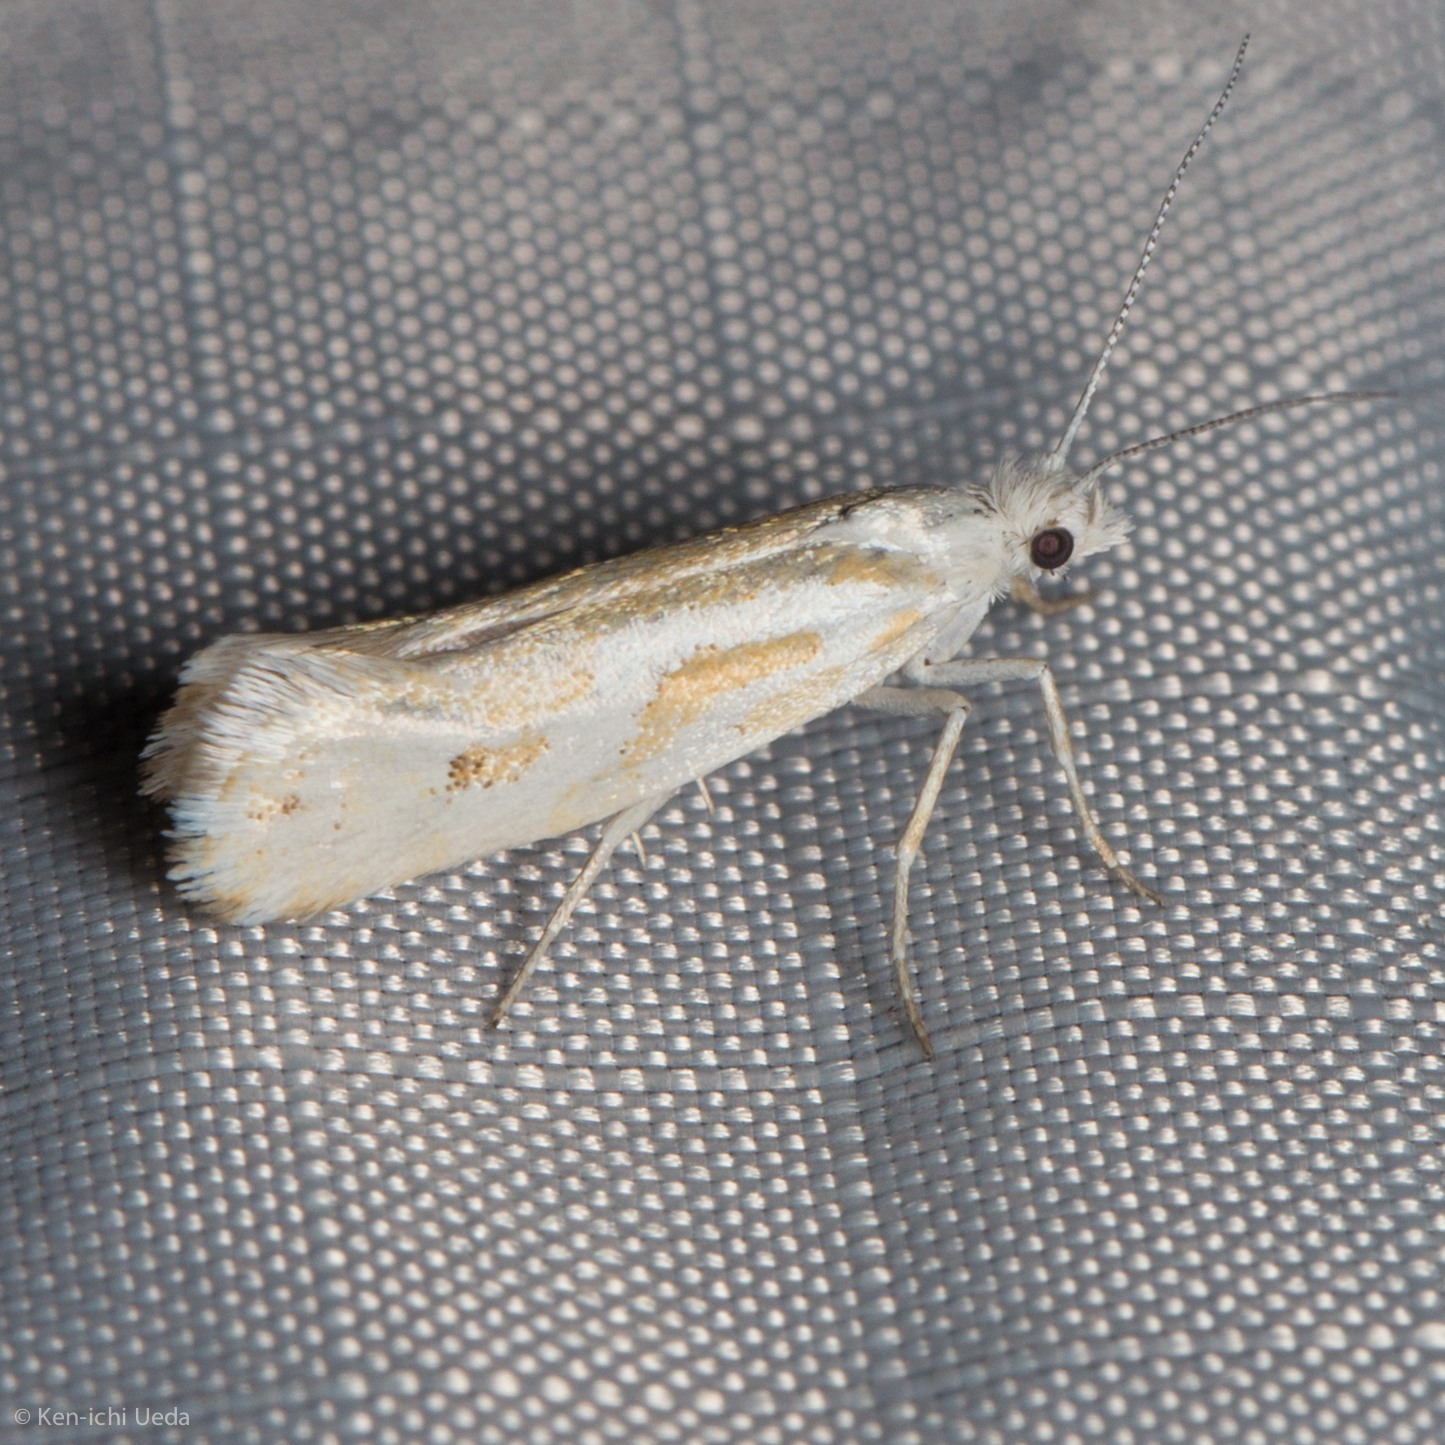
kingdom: Animalia
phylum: Arthropoda
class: Insecta
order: Lepidoptera
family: Ypsolophidae
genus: Ypsolopha
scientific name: Ypsolopha
